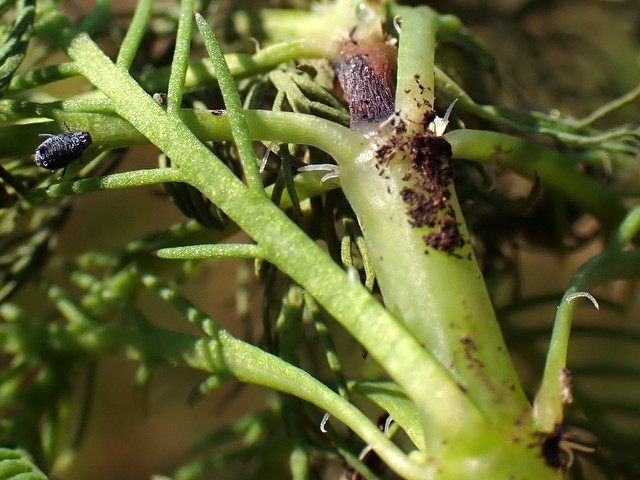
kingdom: Plantae
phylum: Tracheophyta
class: Magnoliopsida
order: Saxifragales
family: Haloragaceae
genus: Myriophyllum
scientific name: Myriophyllum aquaticum
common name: Parrot's feather
